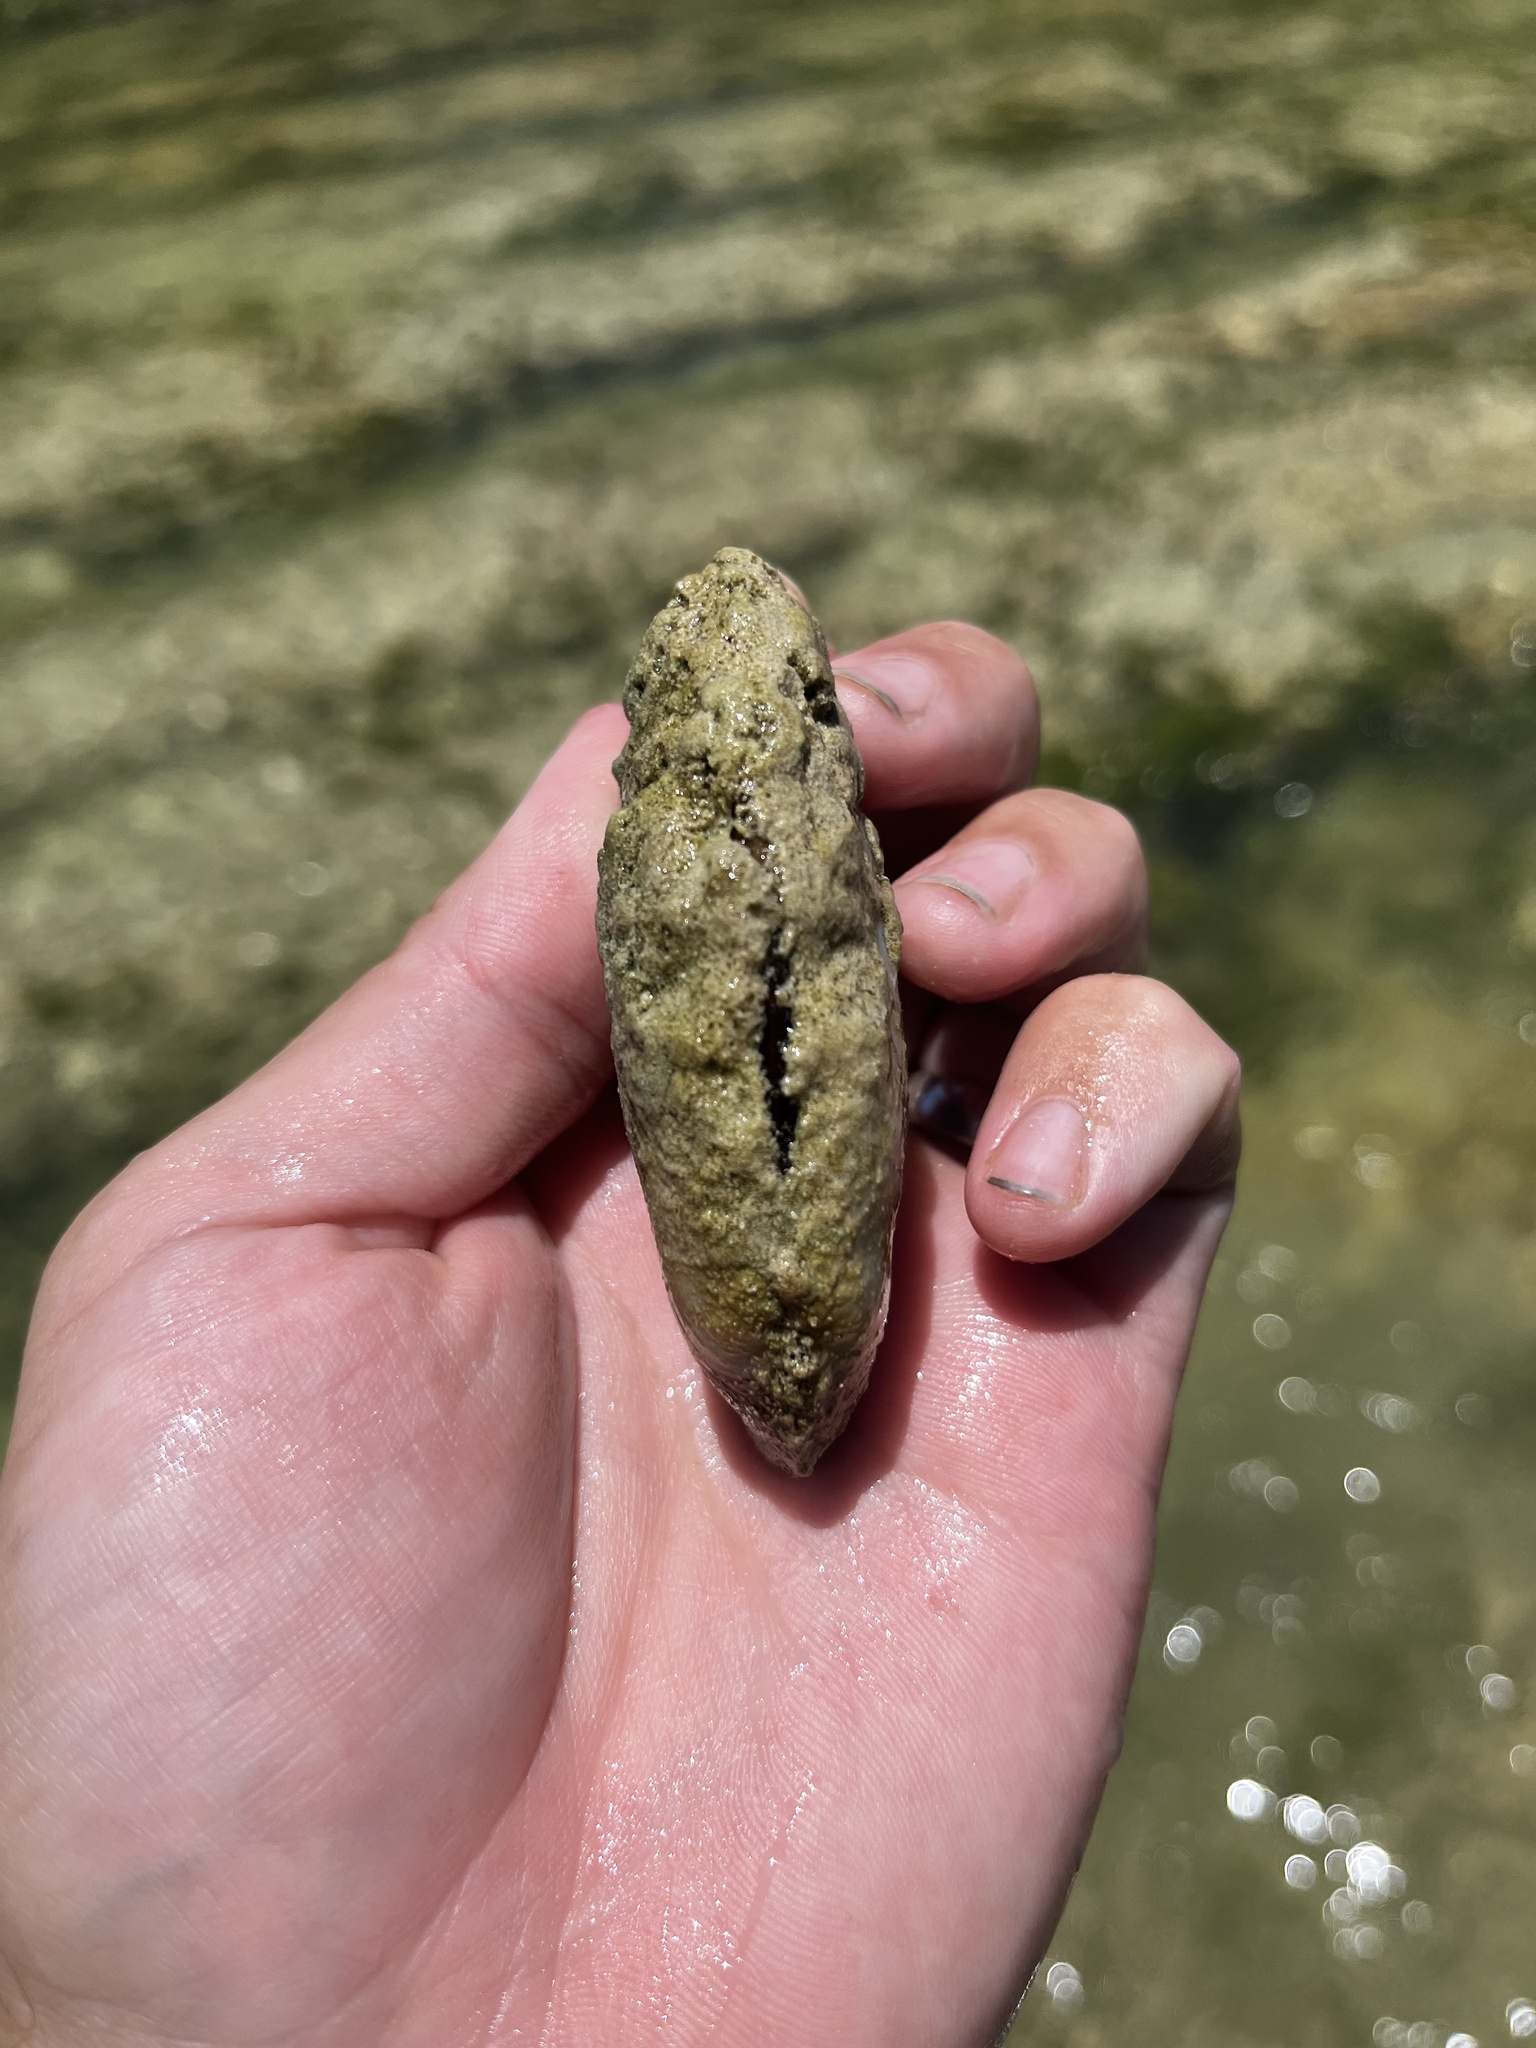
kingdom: Animalia
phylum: Mollusca
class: Bivalvia
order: Unionida
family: Unionidae
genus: Popenaias
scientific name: Popenaias popeii
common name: Texas hornshell
